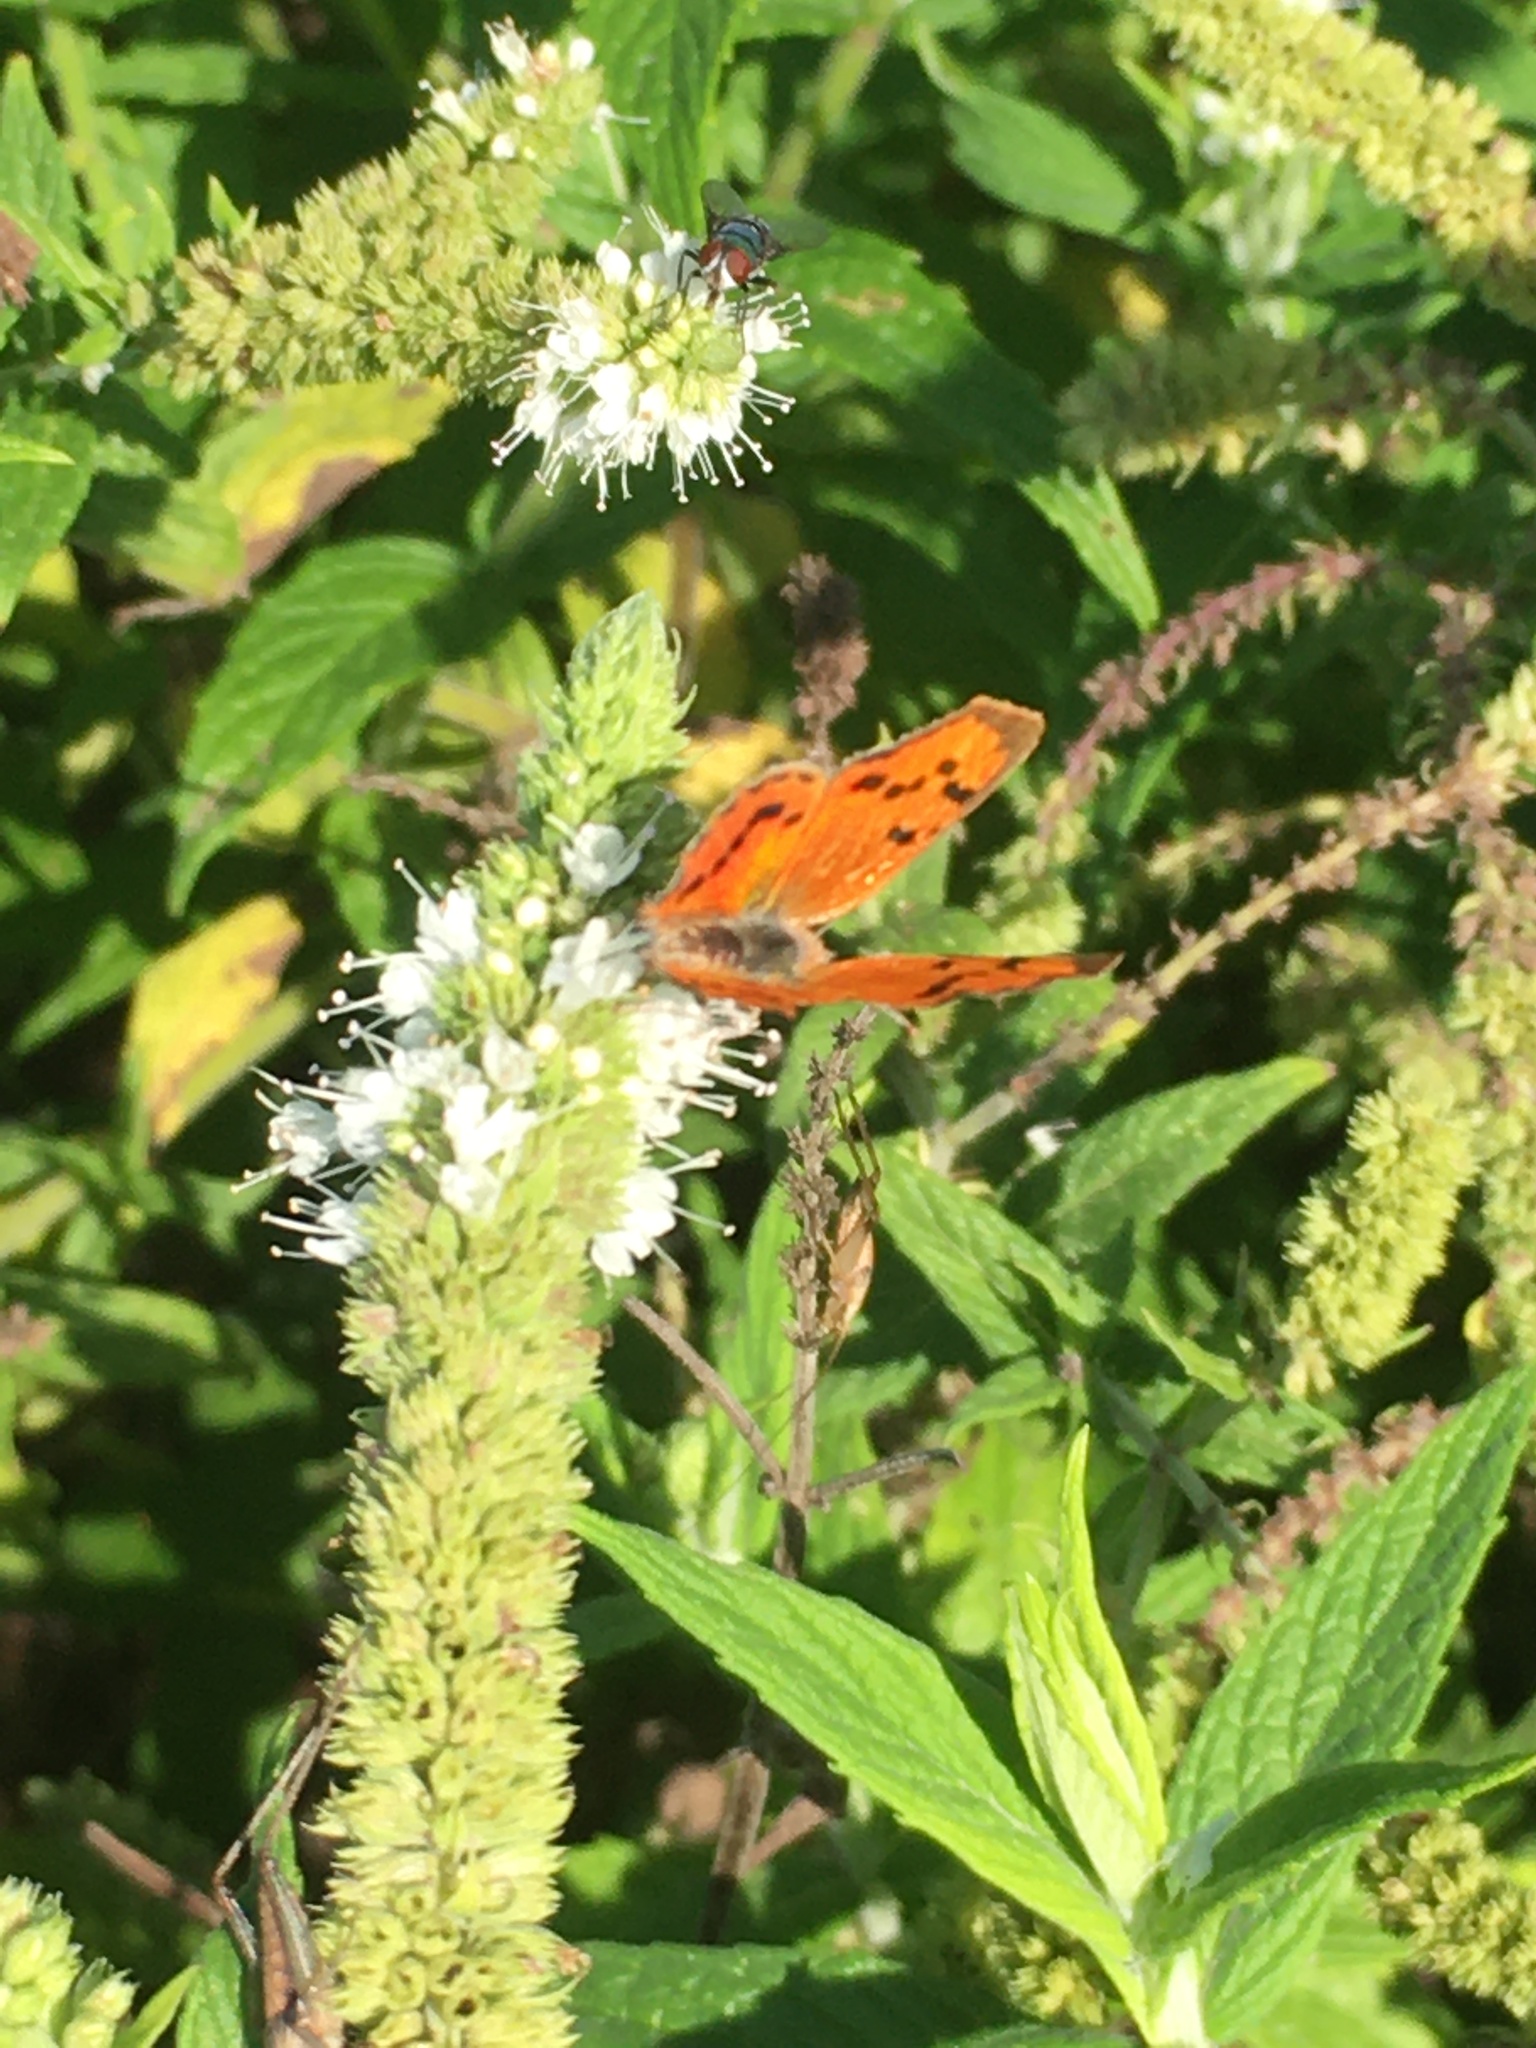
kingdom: Animalia
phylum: Arthropoda
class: Insecta
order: Lepidoptera
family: Lycaenidae
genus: Zeritis
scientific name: Zeritis chrysaor
